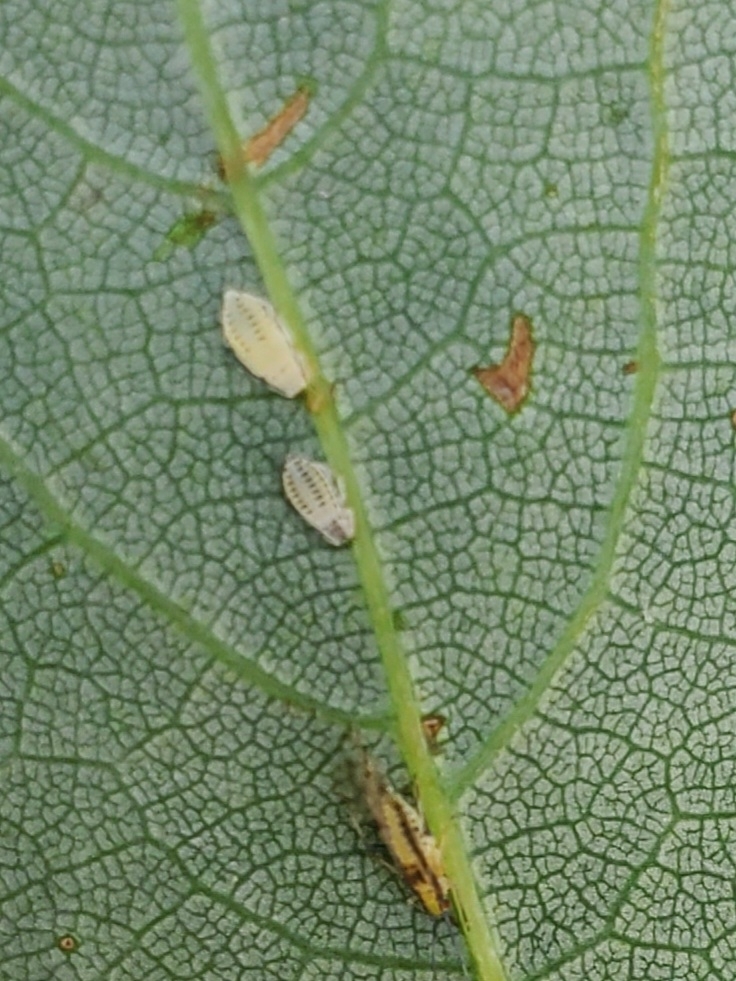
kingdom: Animalia
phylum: Arthropoda
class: Insecta
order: Hemiptera
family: Aphididae
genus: Eucallipterus
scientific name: Eucallipterus tiliae
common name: Aphid
